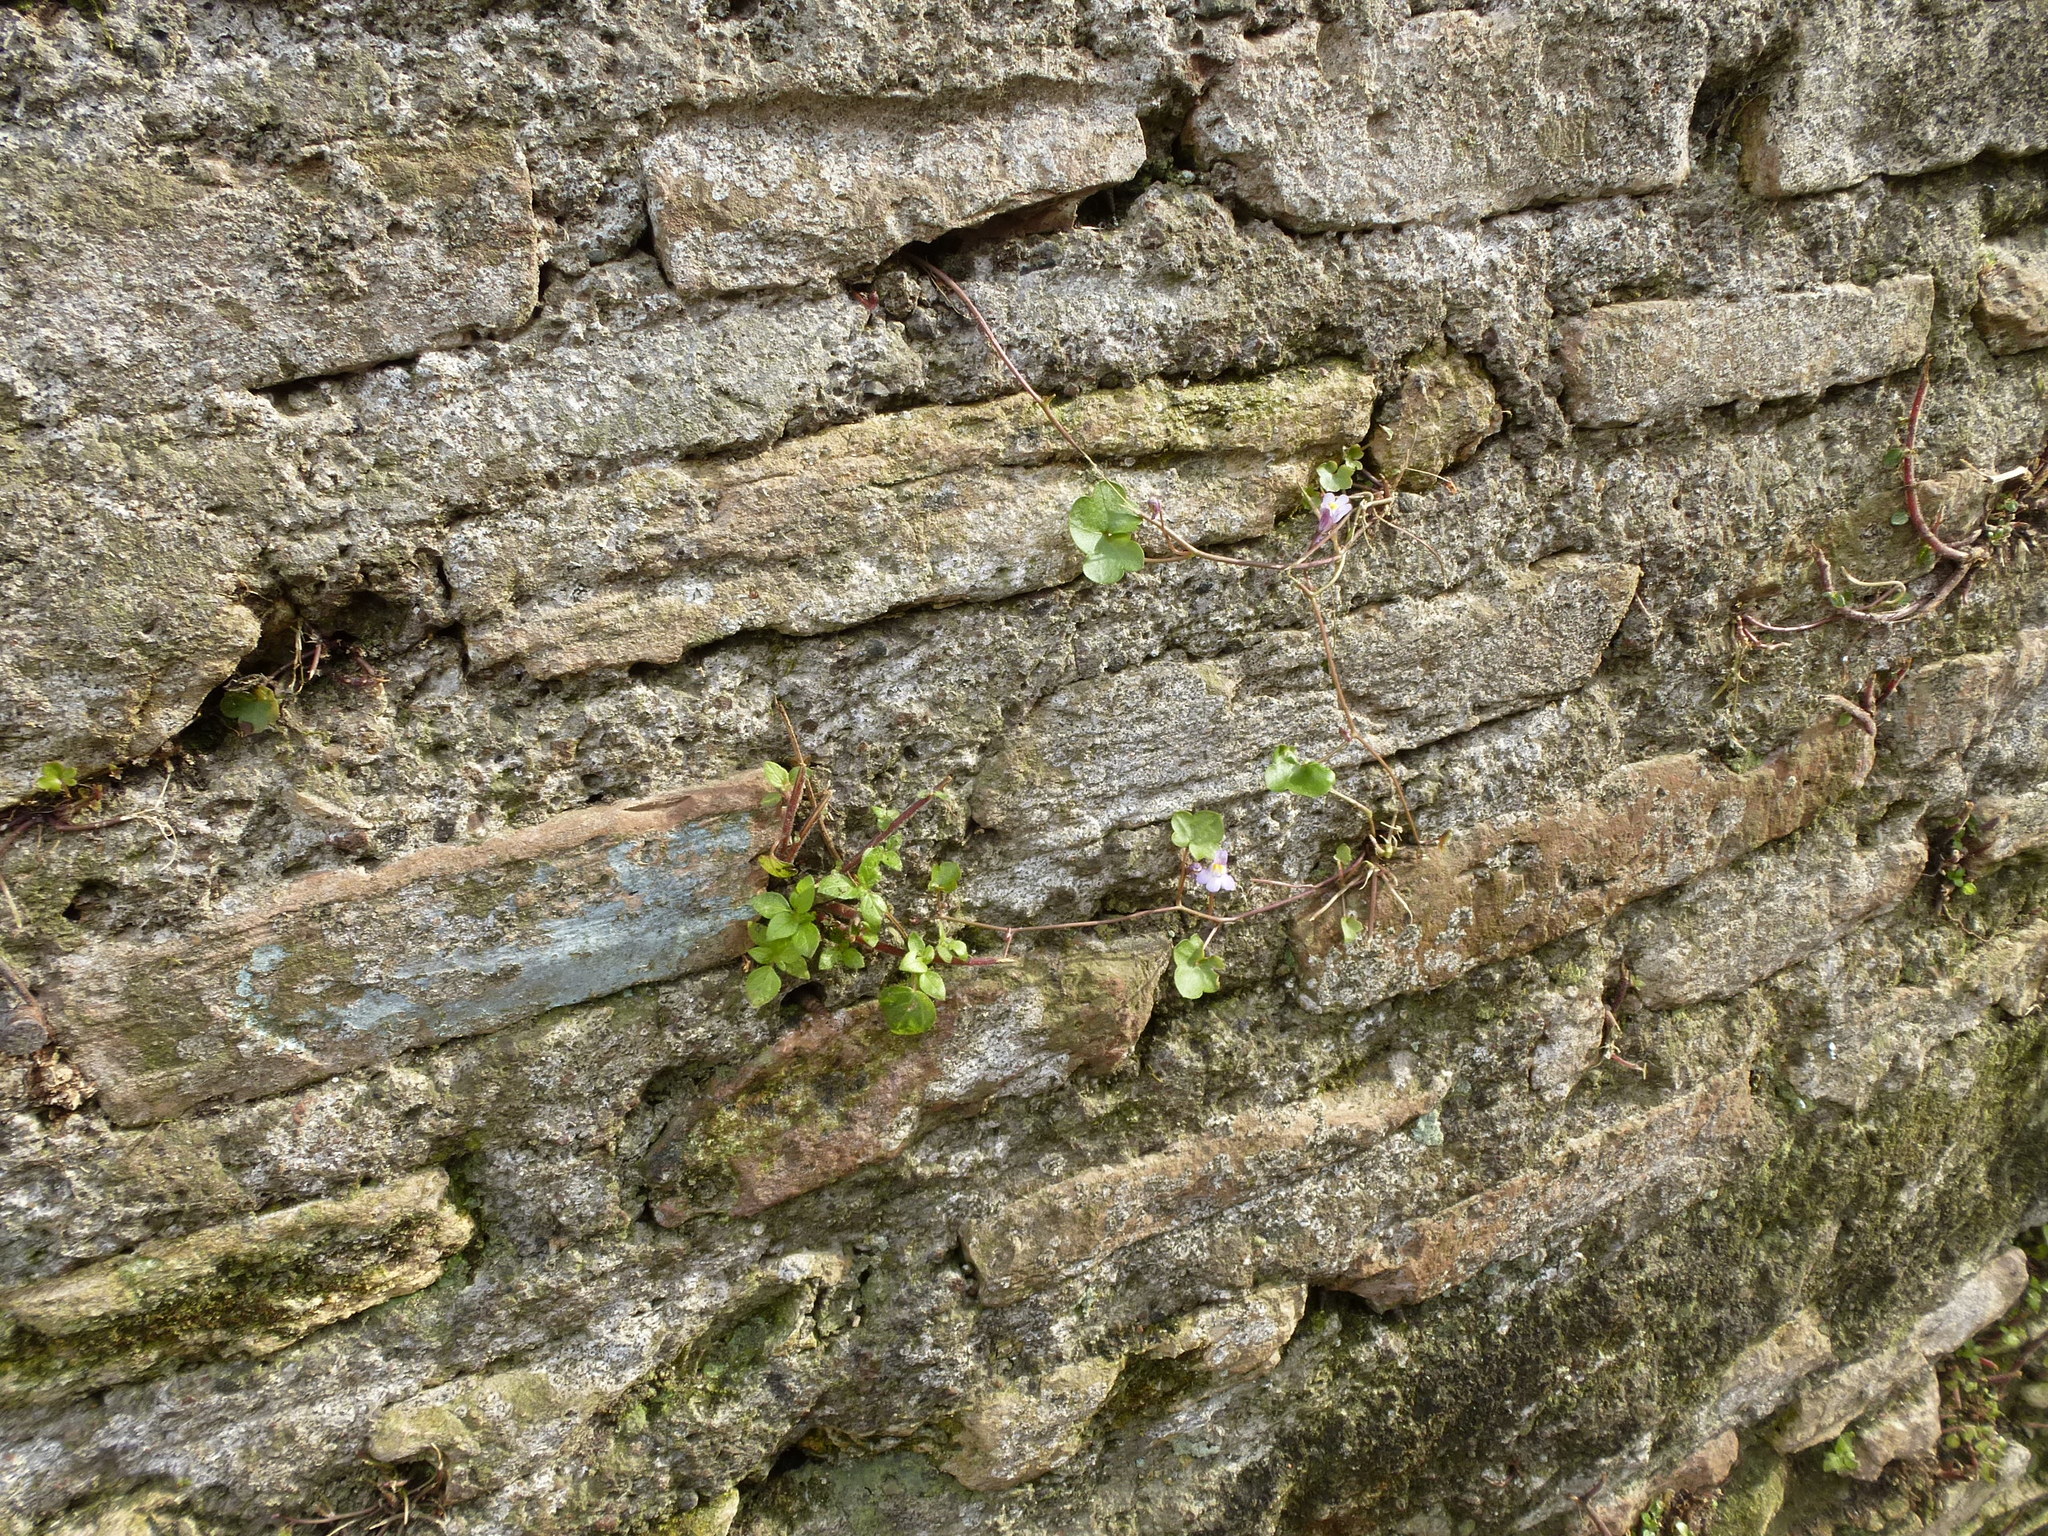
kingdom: Plantae
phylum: Tracheophyta
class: Magnoliopsida
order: Lamiales
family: Plantaginaceae
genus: Cymbalaria
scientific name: Cymbalaria muralis
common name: Ivy-leaved toadflax
